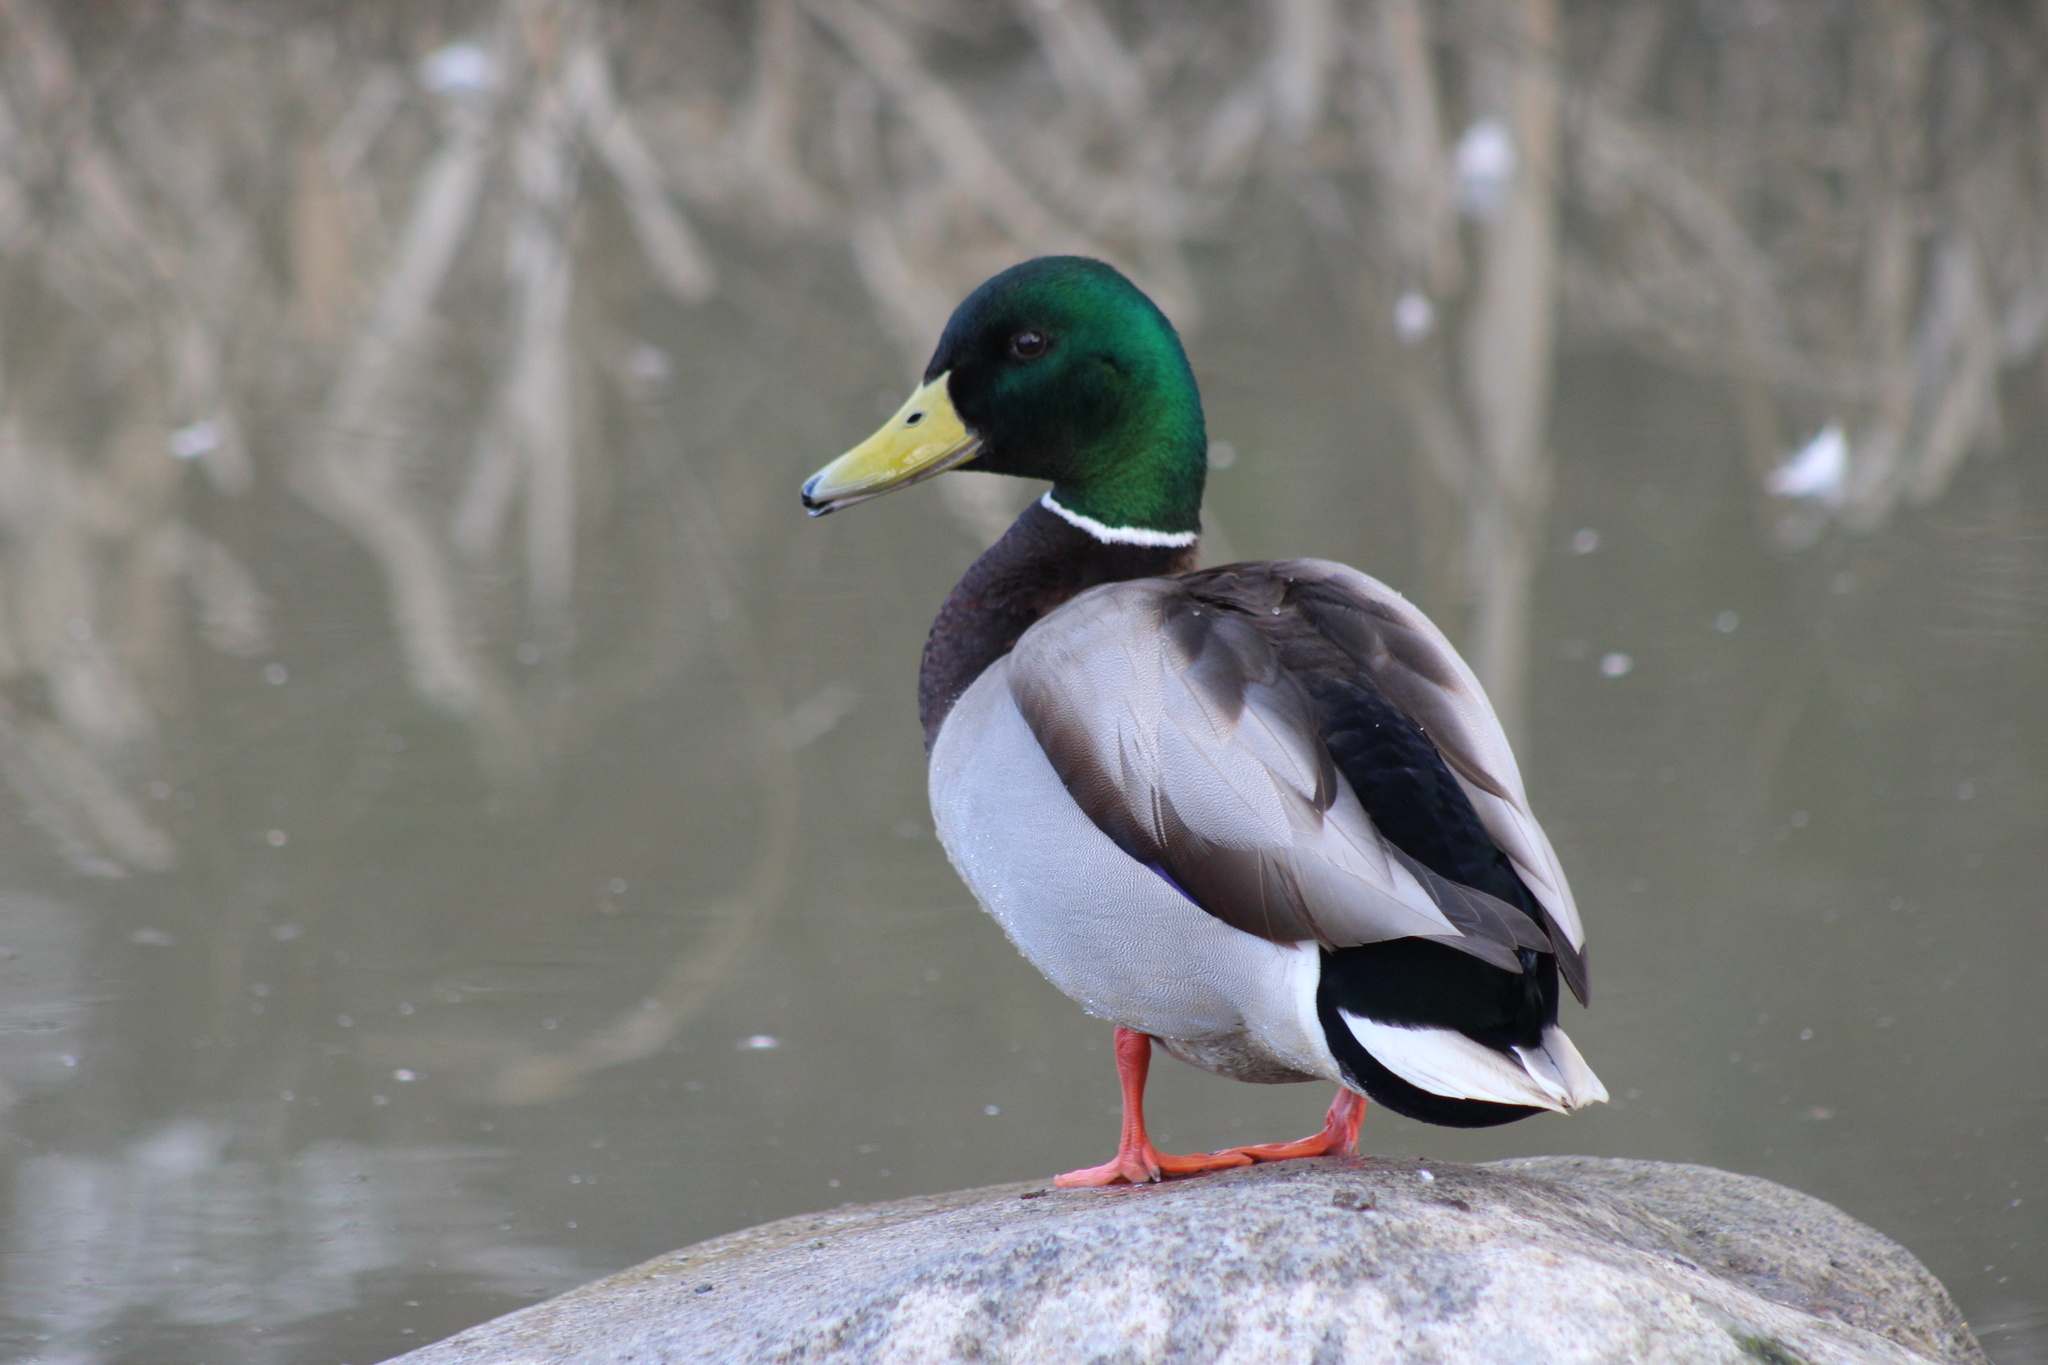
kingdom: Animalia
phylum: Chordata
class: Aves
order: Anseriformes
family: Anatidae
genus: Anas
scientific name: Anas platyrhynchos
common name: Mallard
